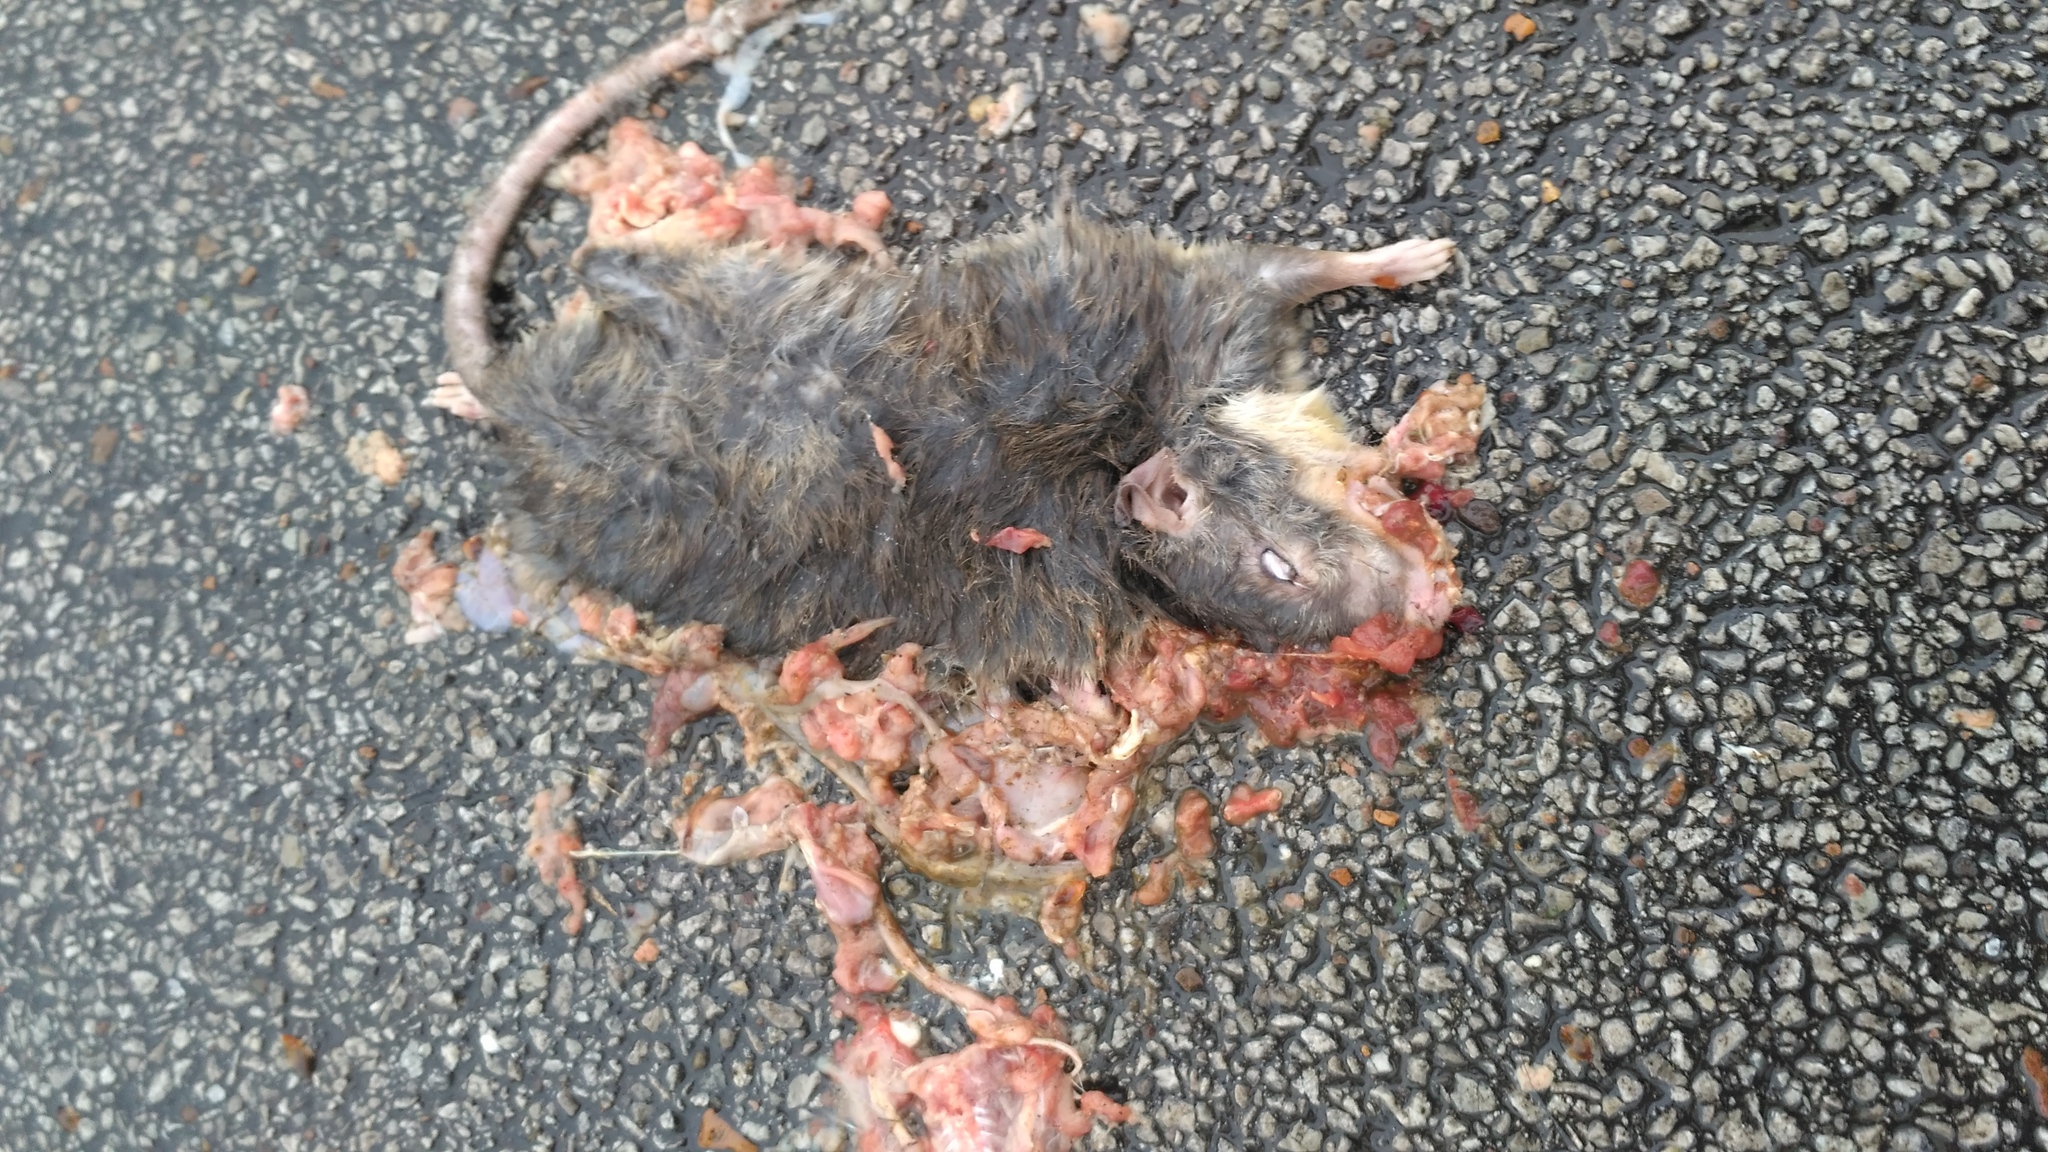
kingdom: Animalia
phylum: Chordata
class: Mammalia
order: Rodentia
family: Muridae
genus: Rattus
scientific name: Rattus norvegicus
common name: Brown rat
